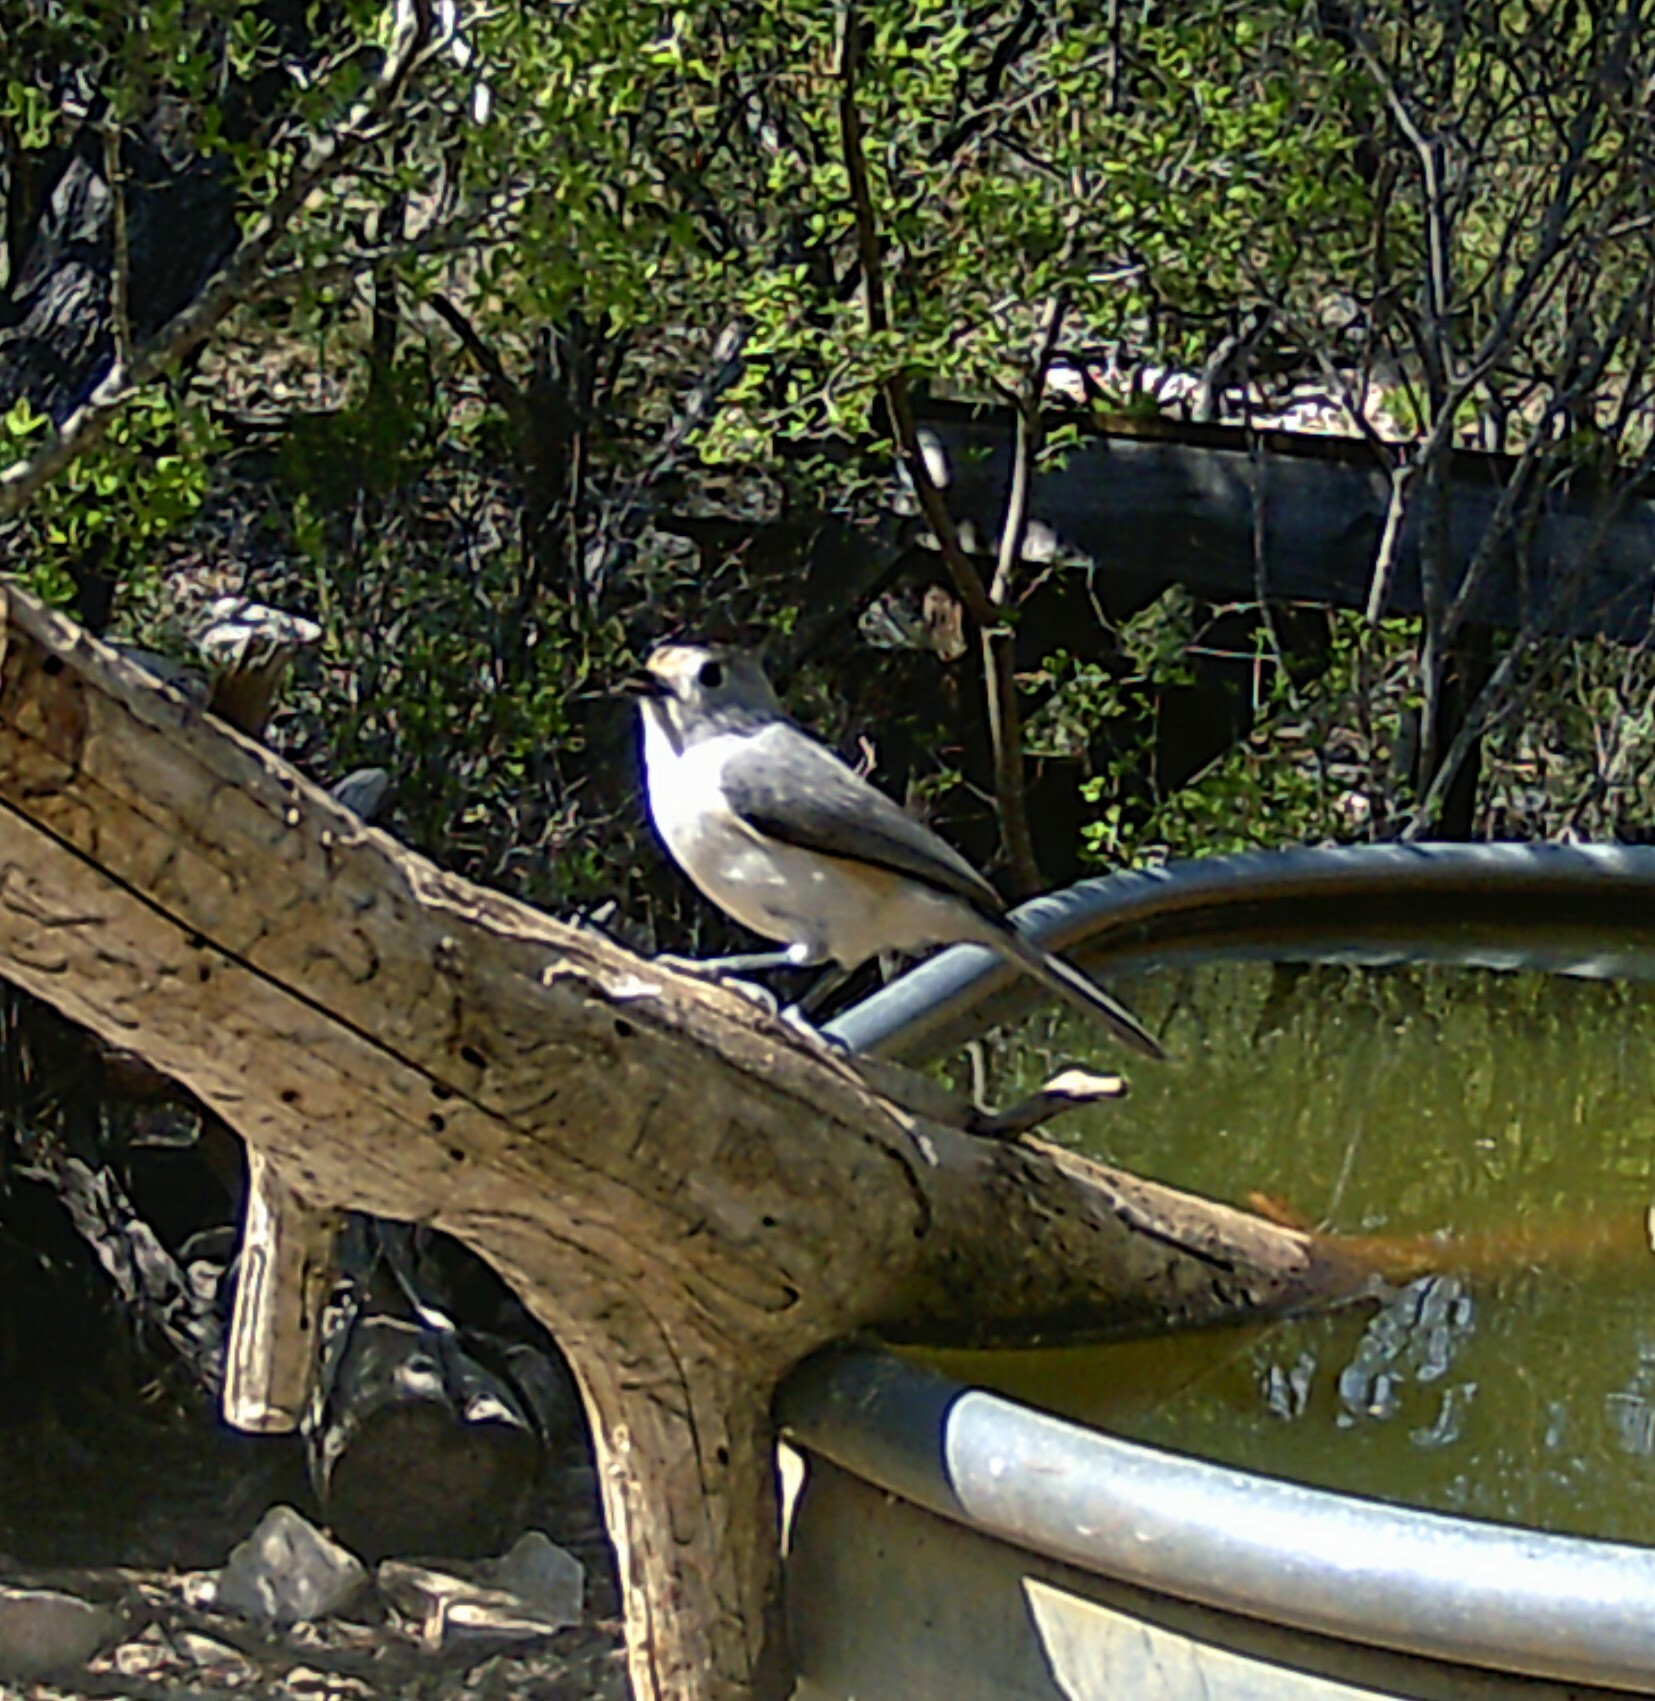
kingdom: Animalia
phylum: Chordata
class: Aves
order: Passeriformes
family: Paridae
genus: Baeolophus
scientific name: Baeolophus atricristatus
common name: Black-crested titmouse
